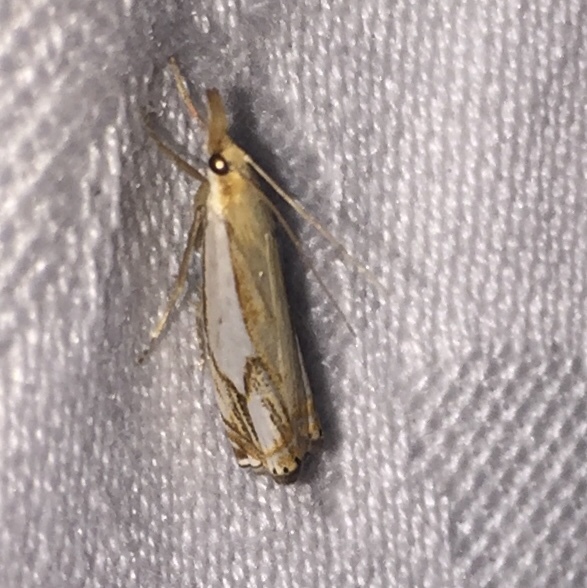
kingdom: Animalia
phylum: Arthropoda
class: Insecta
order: Lepidoptera
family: Crambidae
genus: Crambus
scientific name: Crambus agitatellus
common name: Double-banded grass-veneer
